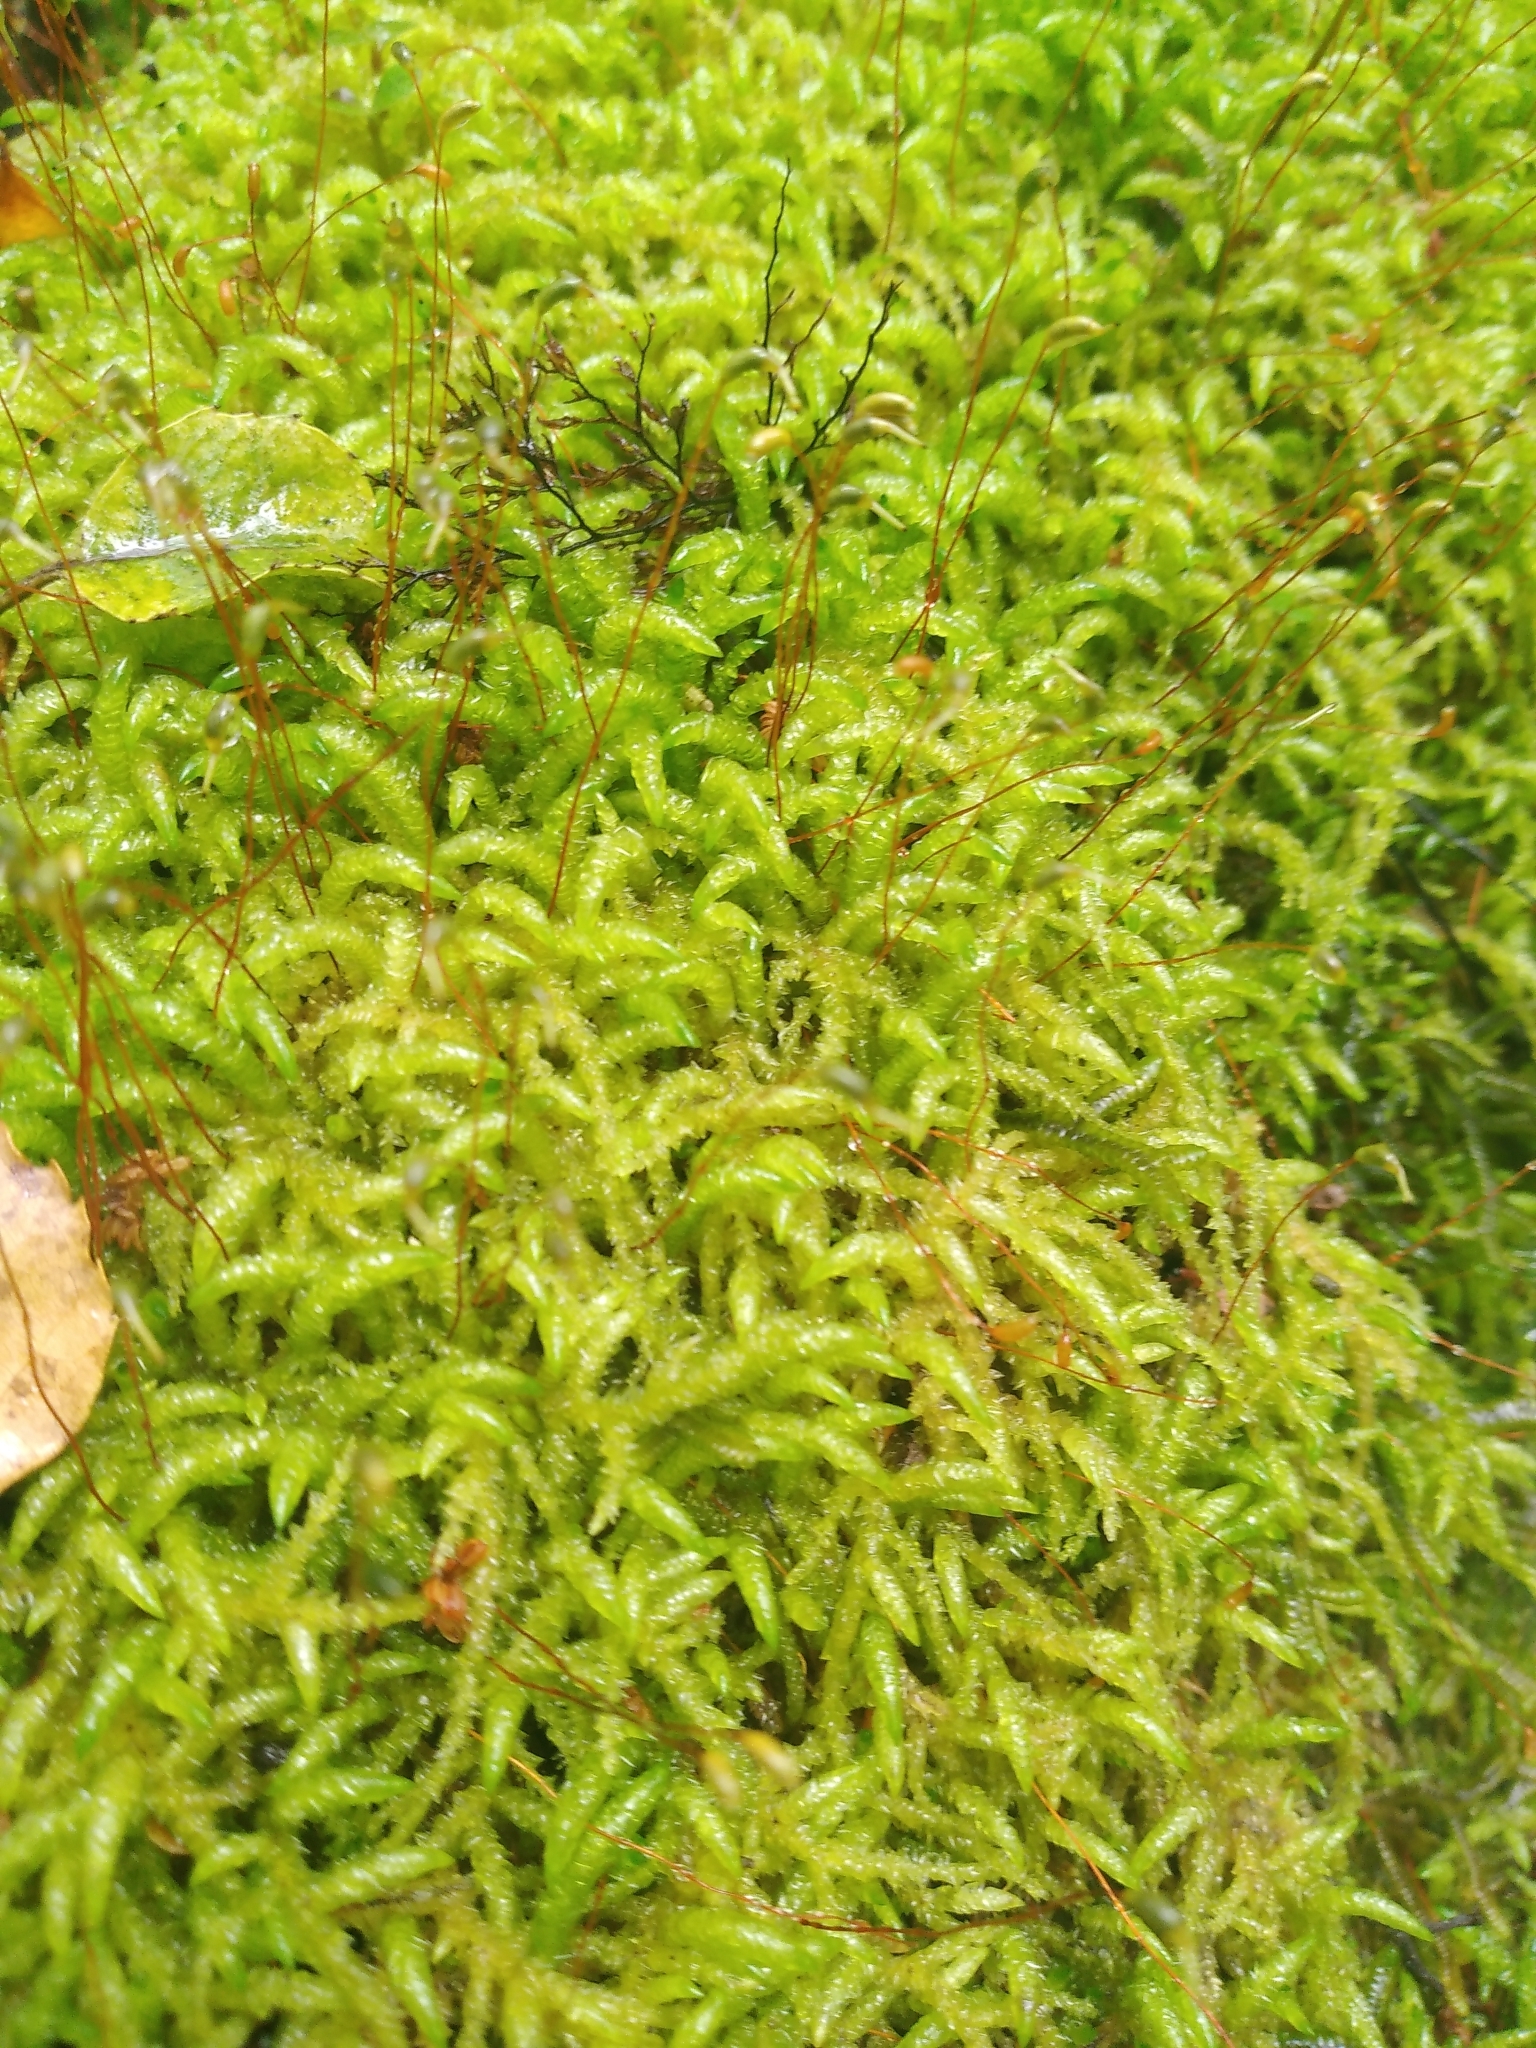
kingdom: Plantae
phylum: Bryophyta
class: Bryopsida
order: Hypnales
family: Acrocladiaceae
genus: Acrocladium
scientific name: Acrocladium chlamydophyllum
